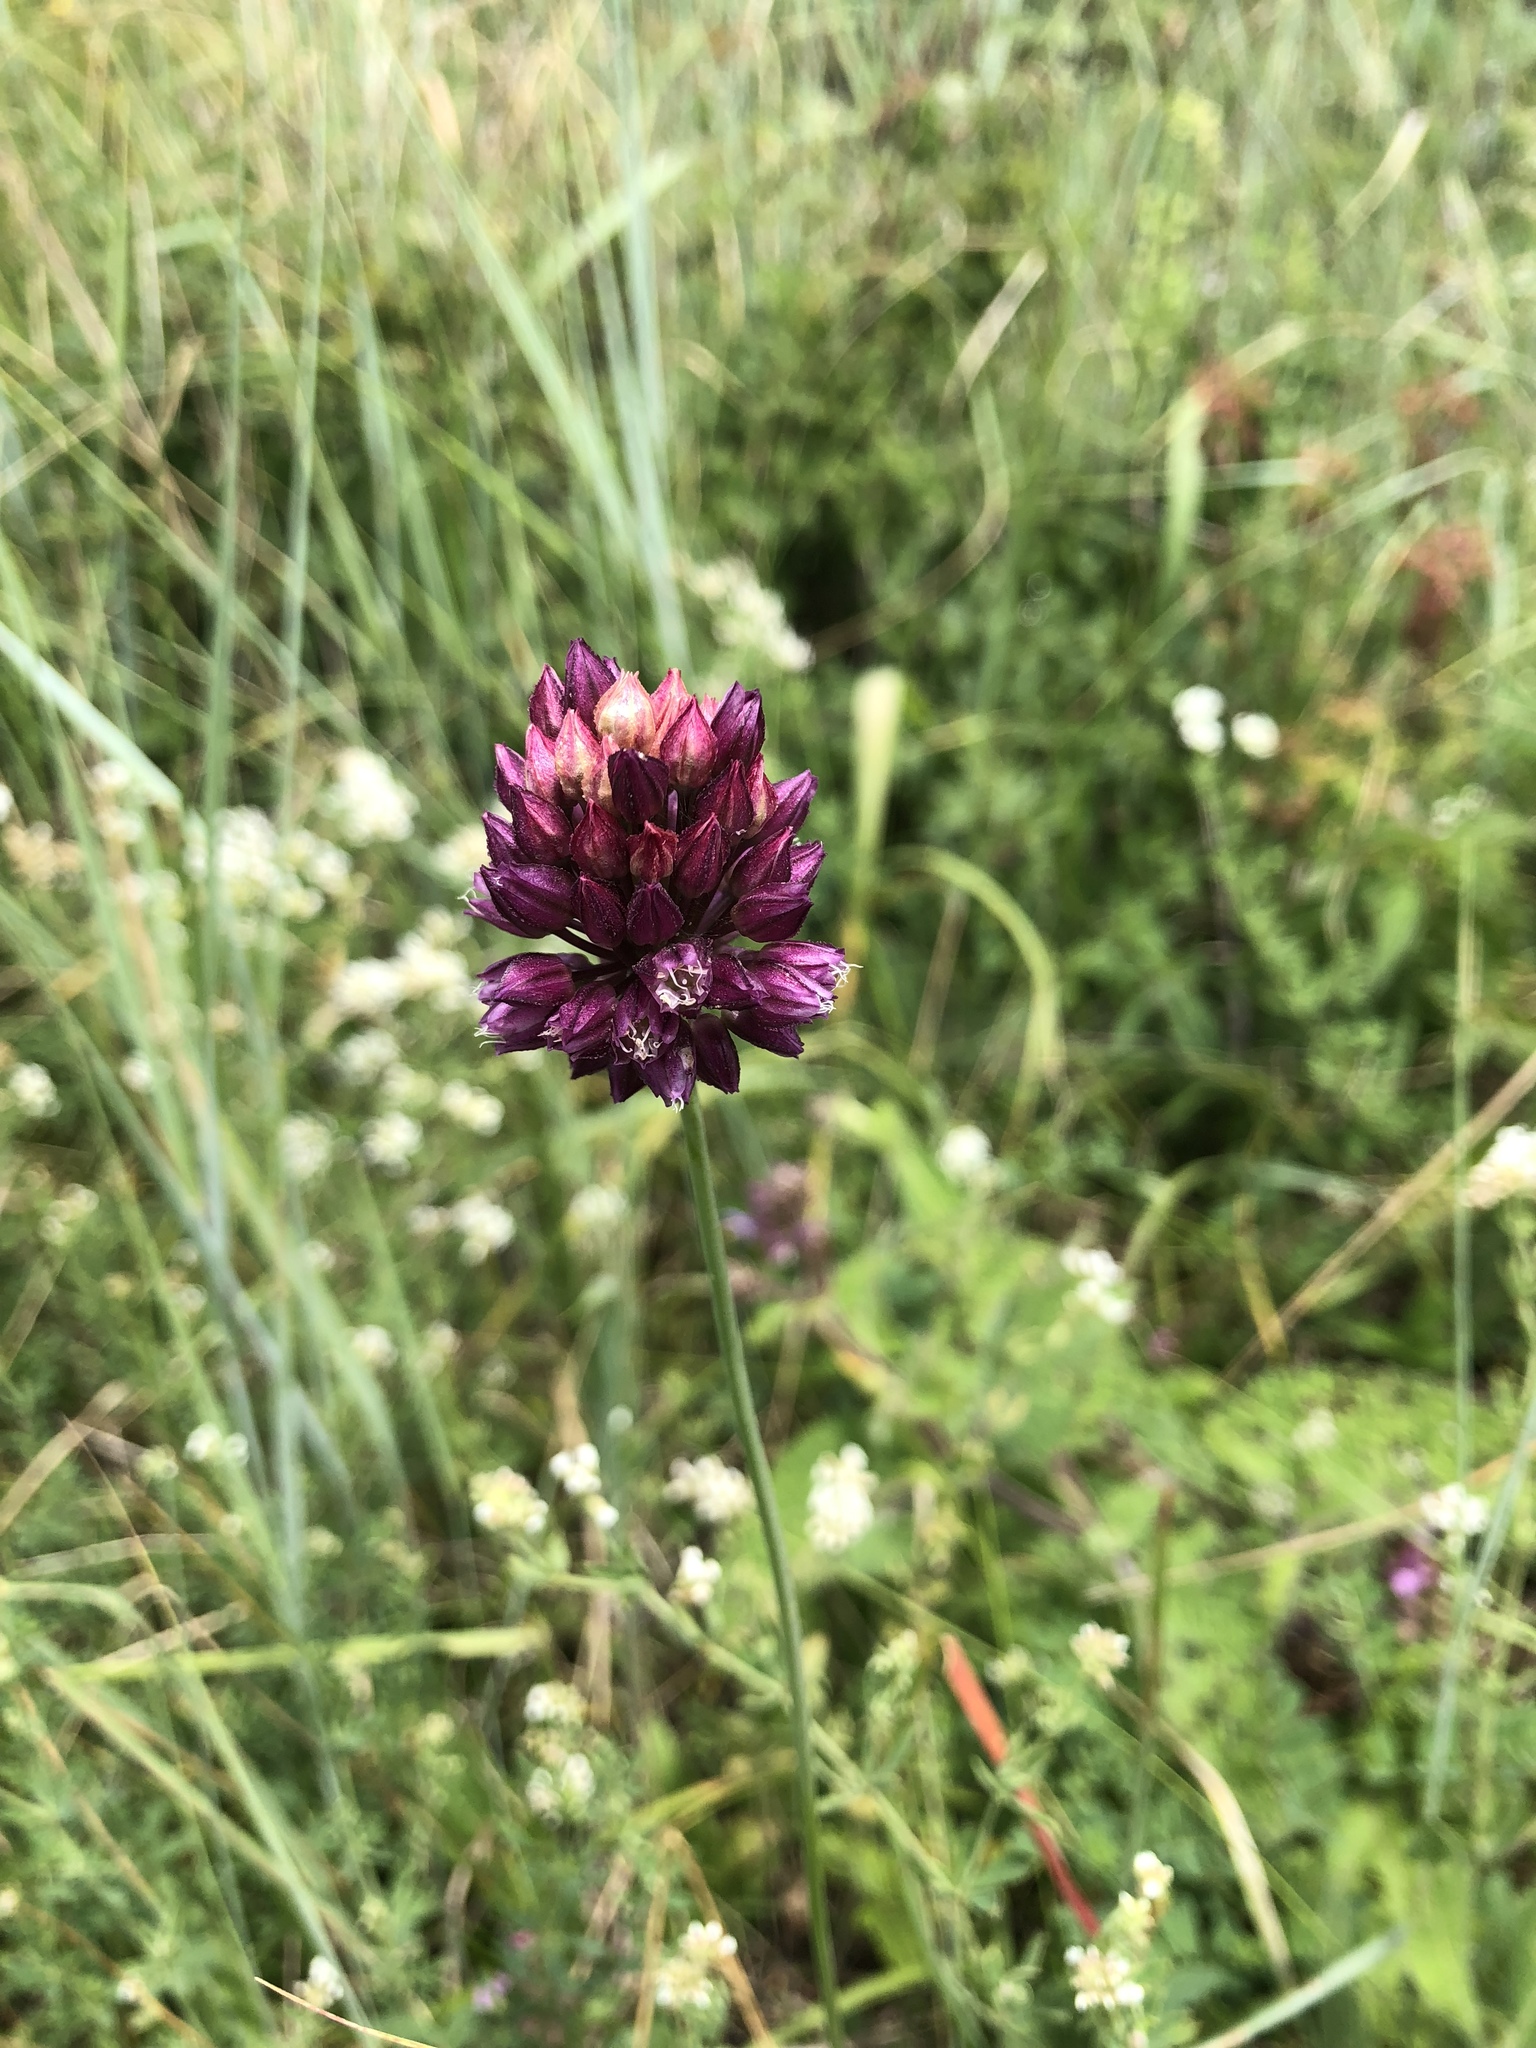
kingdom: Plantae
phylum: Tracheophyta
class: Liliopsida
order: Asparagales
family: Amaryllidaceae
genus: Allium
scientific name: Allium rotundum
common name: Sand leek
